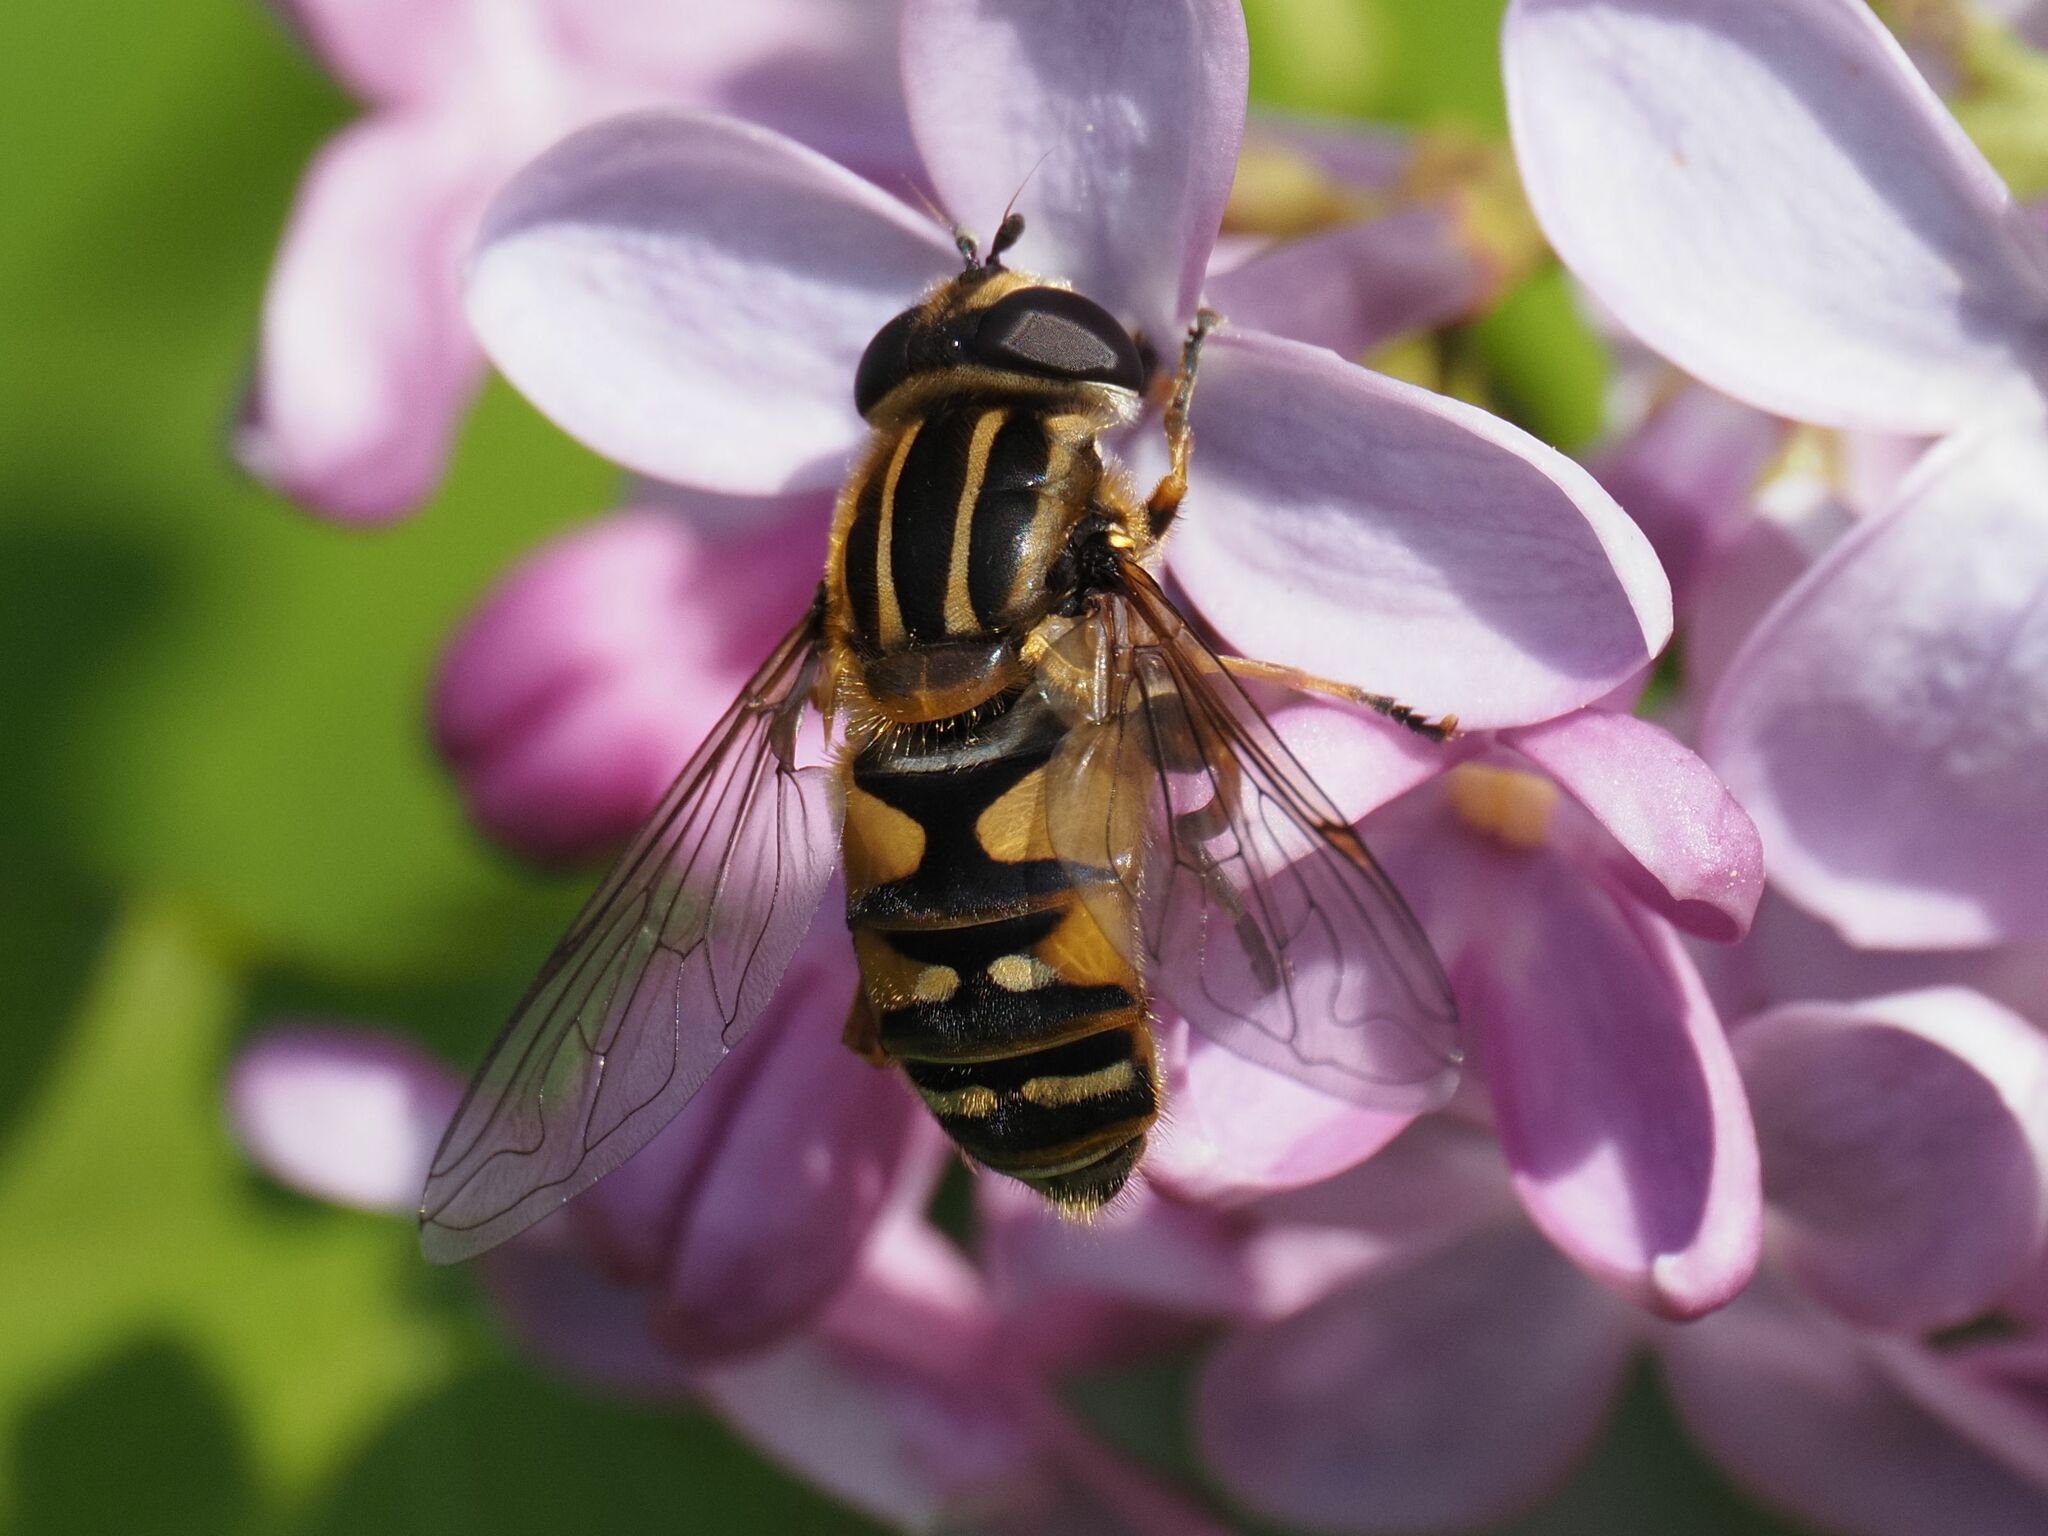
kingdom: Animalia
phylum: Arthropoda
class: Insecta
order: Diptera
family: Syrphidae
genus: Helophilus
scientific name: Helophilus pendulus
